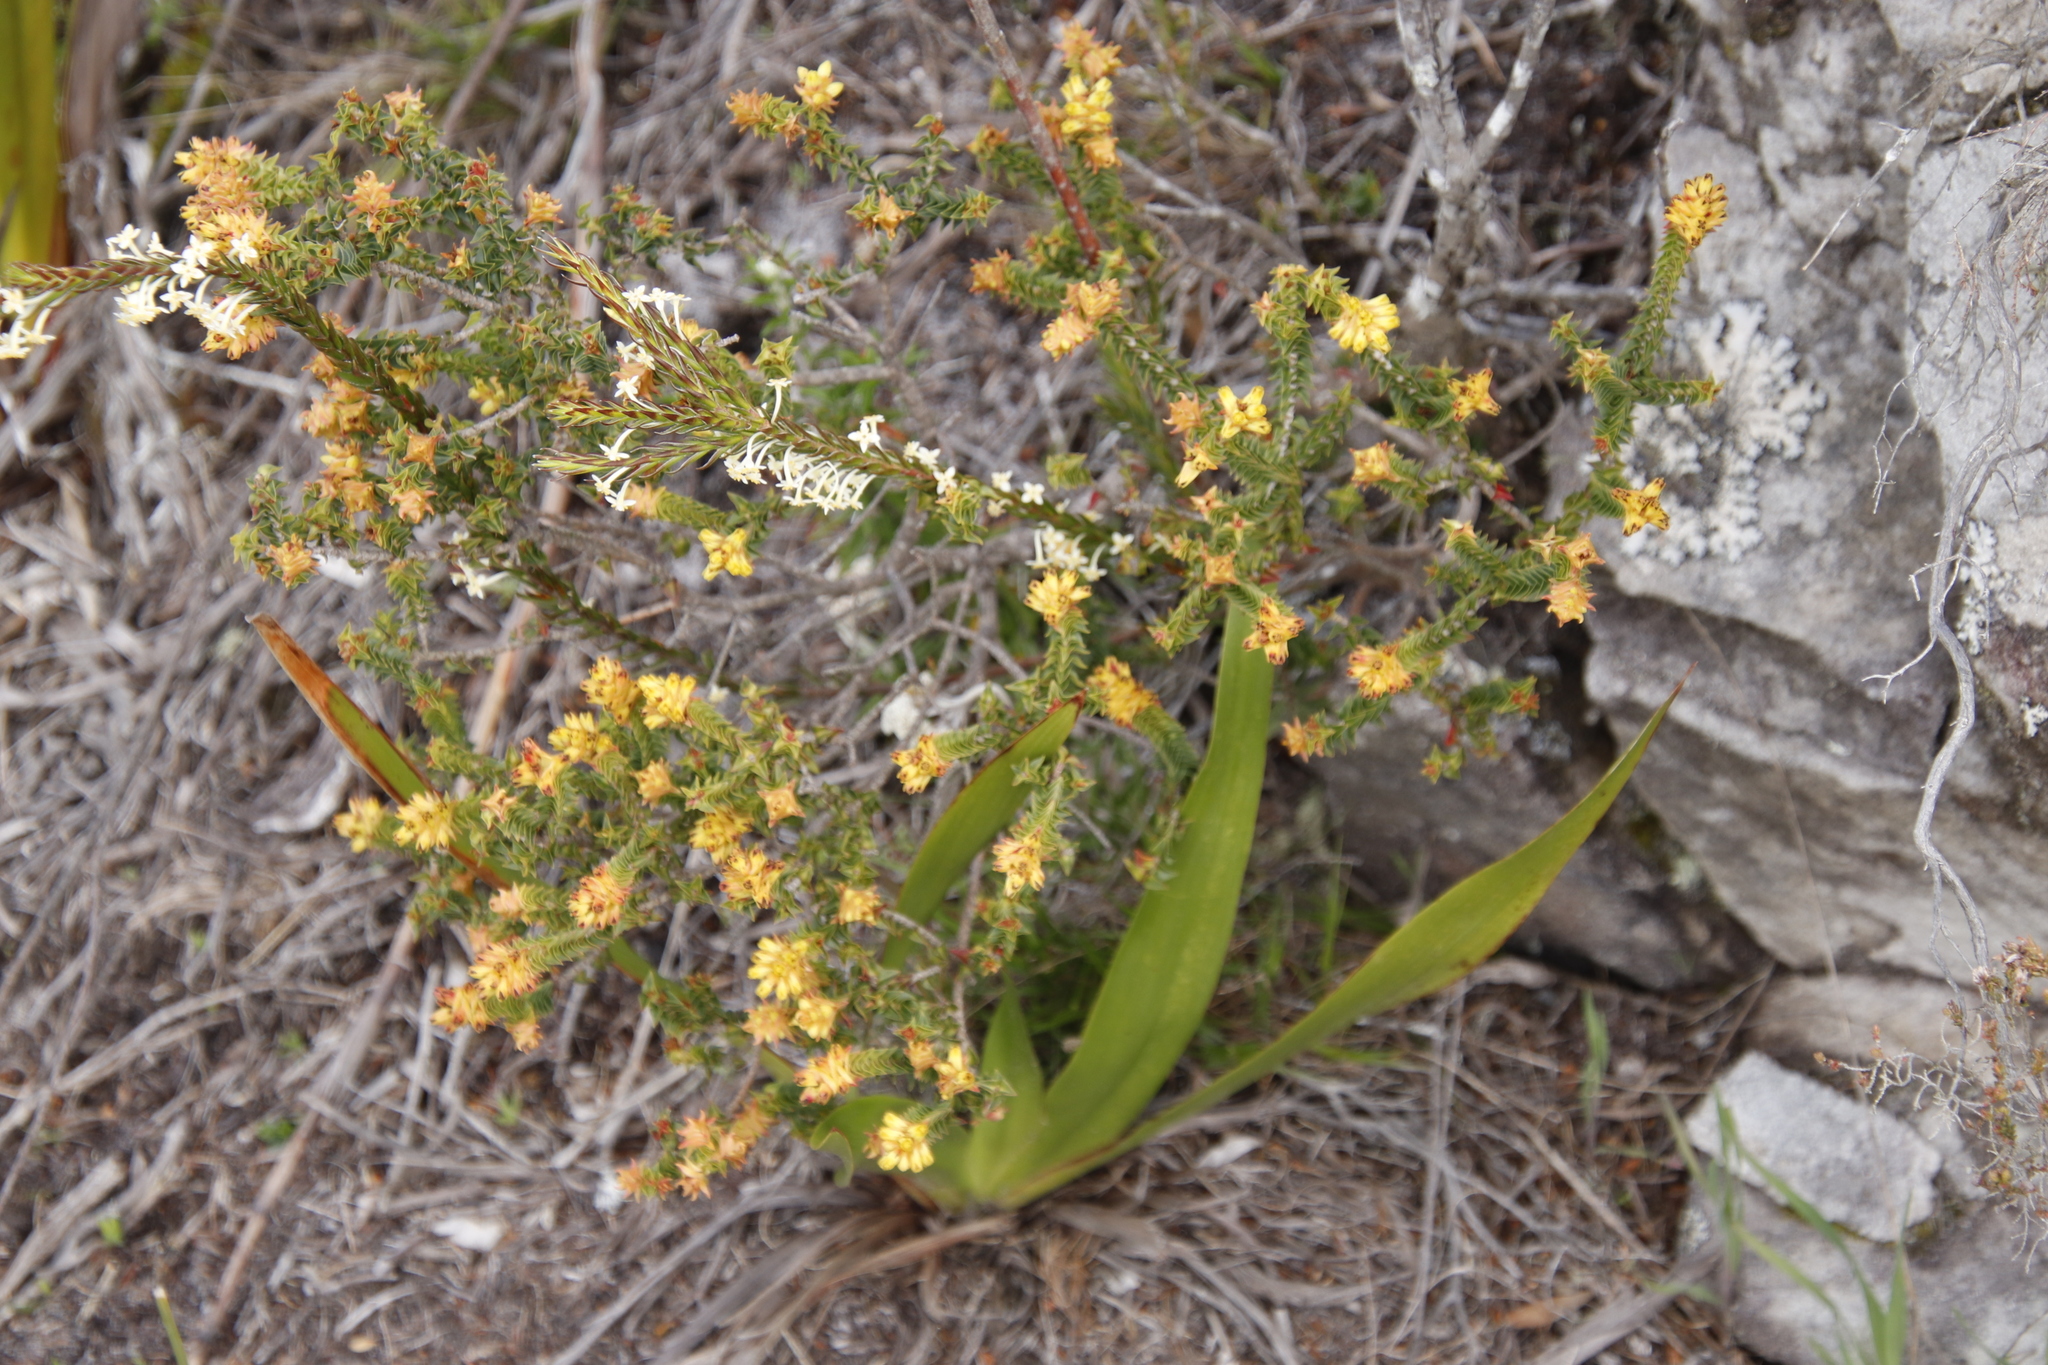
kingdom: Plantae
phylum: Tracheophyta
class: Magnoliopsida
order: Myrtales
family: Penaeaceae
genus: Penaea
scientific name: Penaea mucronata
